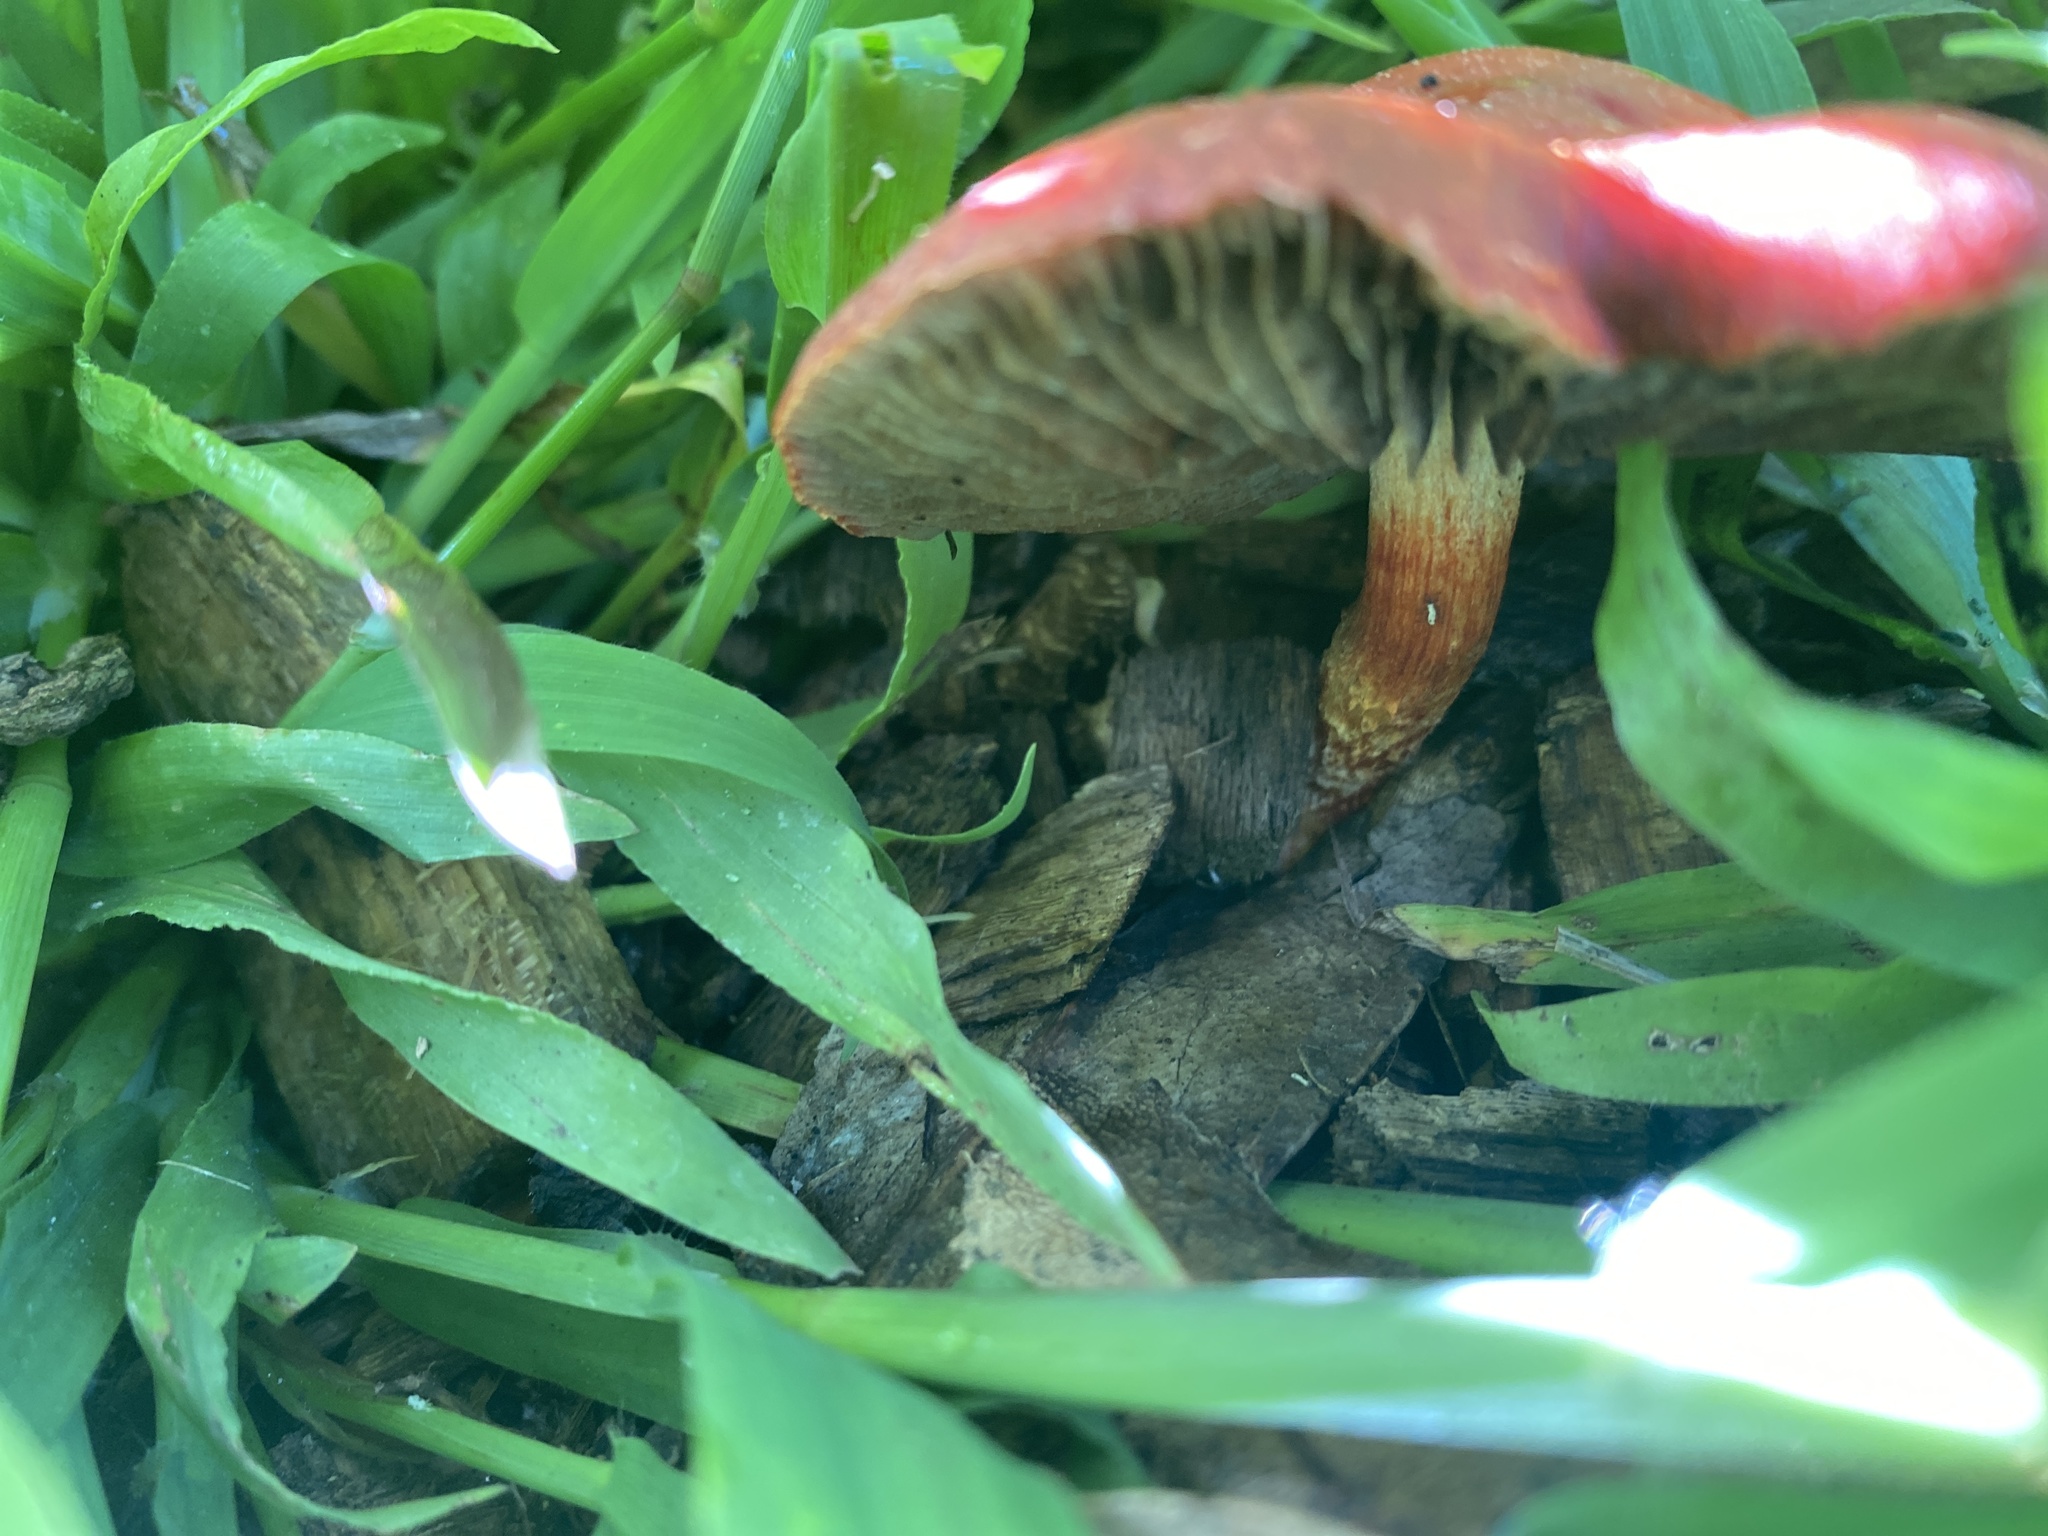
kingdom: Fungi
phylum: Basidiomycota
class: Agaricomycetes
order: Agaricales
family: Strophariaceae
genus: Leratiomyces
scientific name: Leratiomyces ceres
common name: Redlead roundhead
